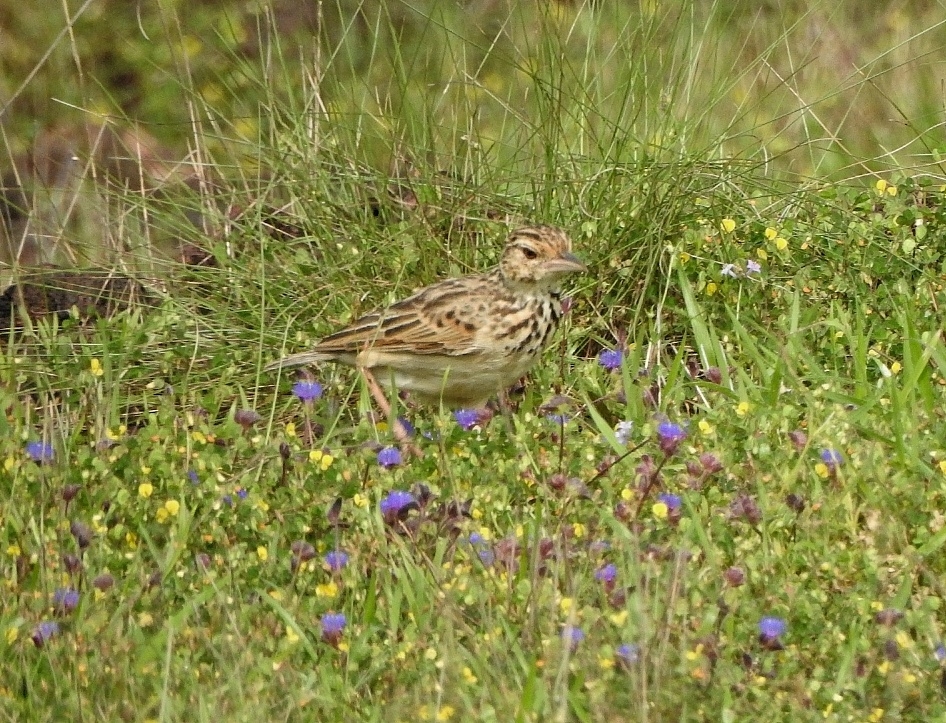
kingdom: Animalia
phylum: Chordata
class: Aves
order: Passeriformes
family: Alaudidae
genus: Mirafra
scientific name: Mirafra affinis
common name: Jerdon's bushlark
